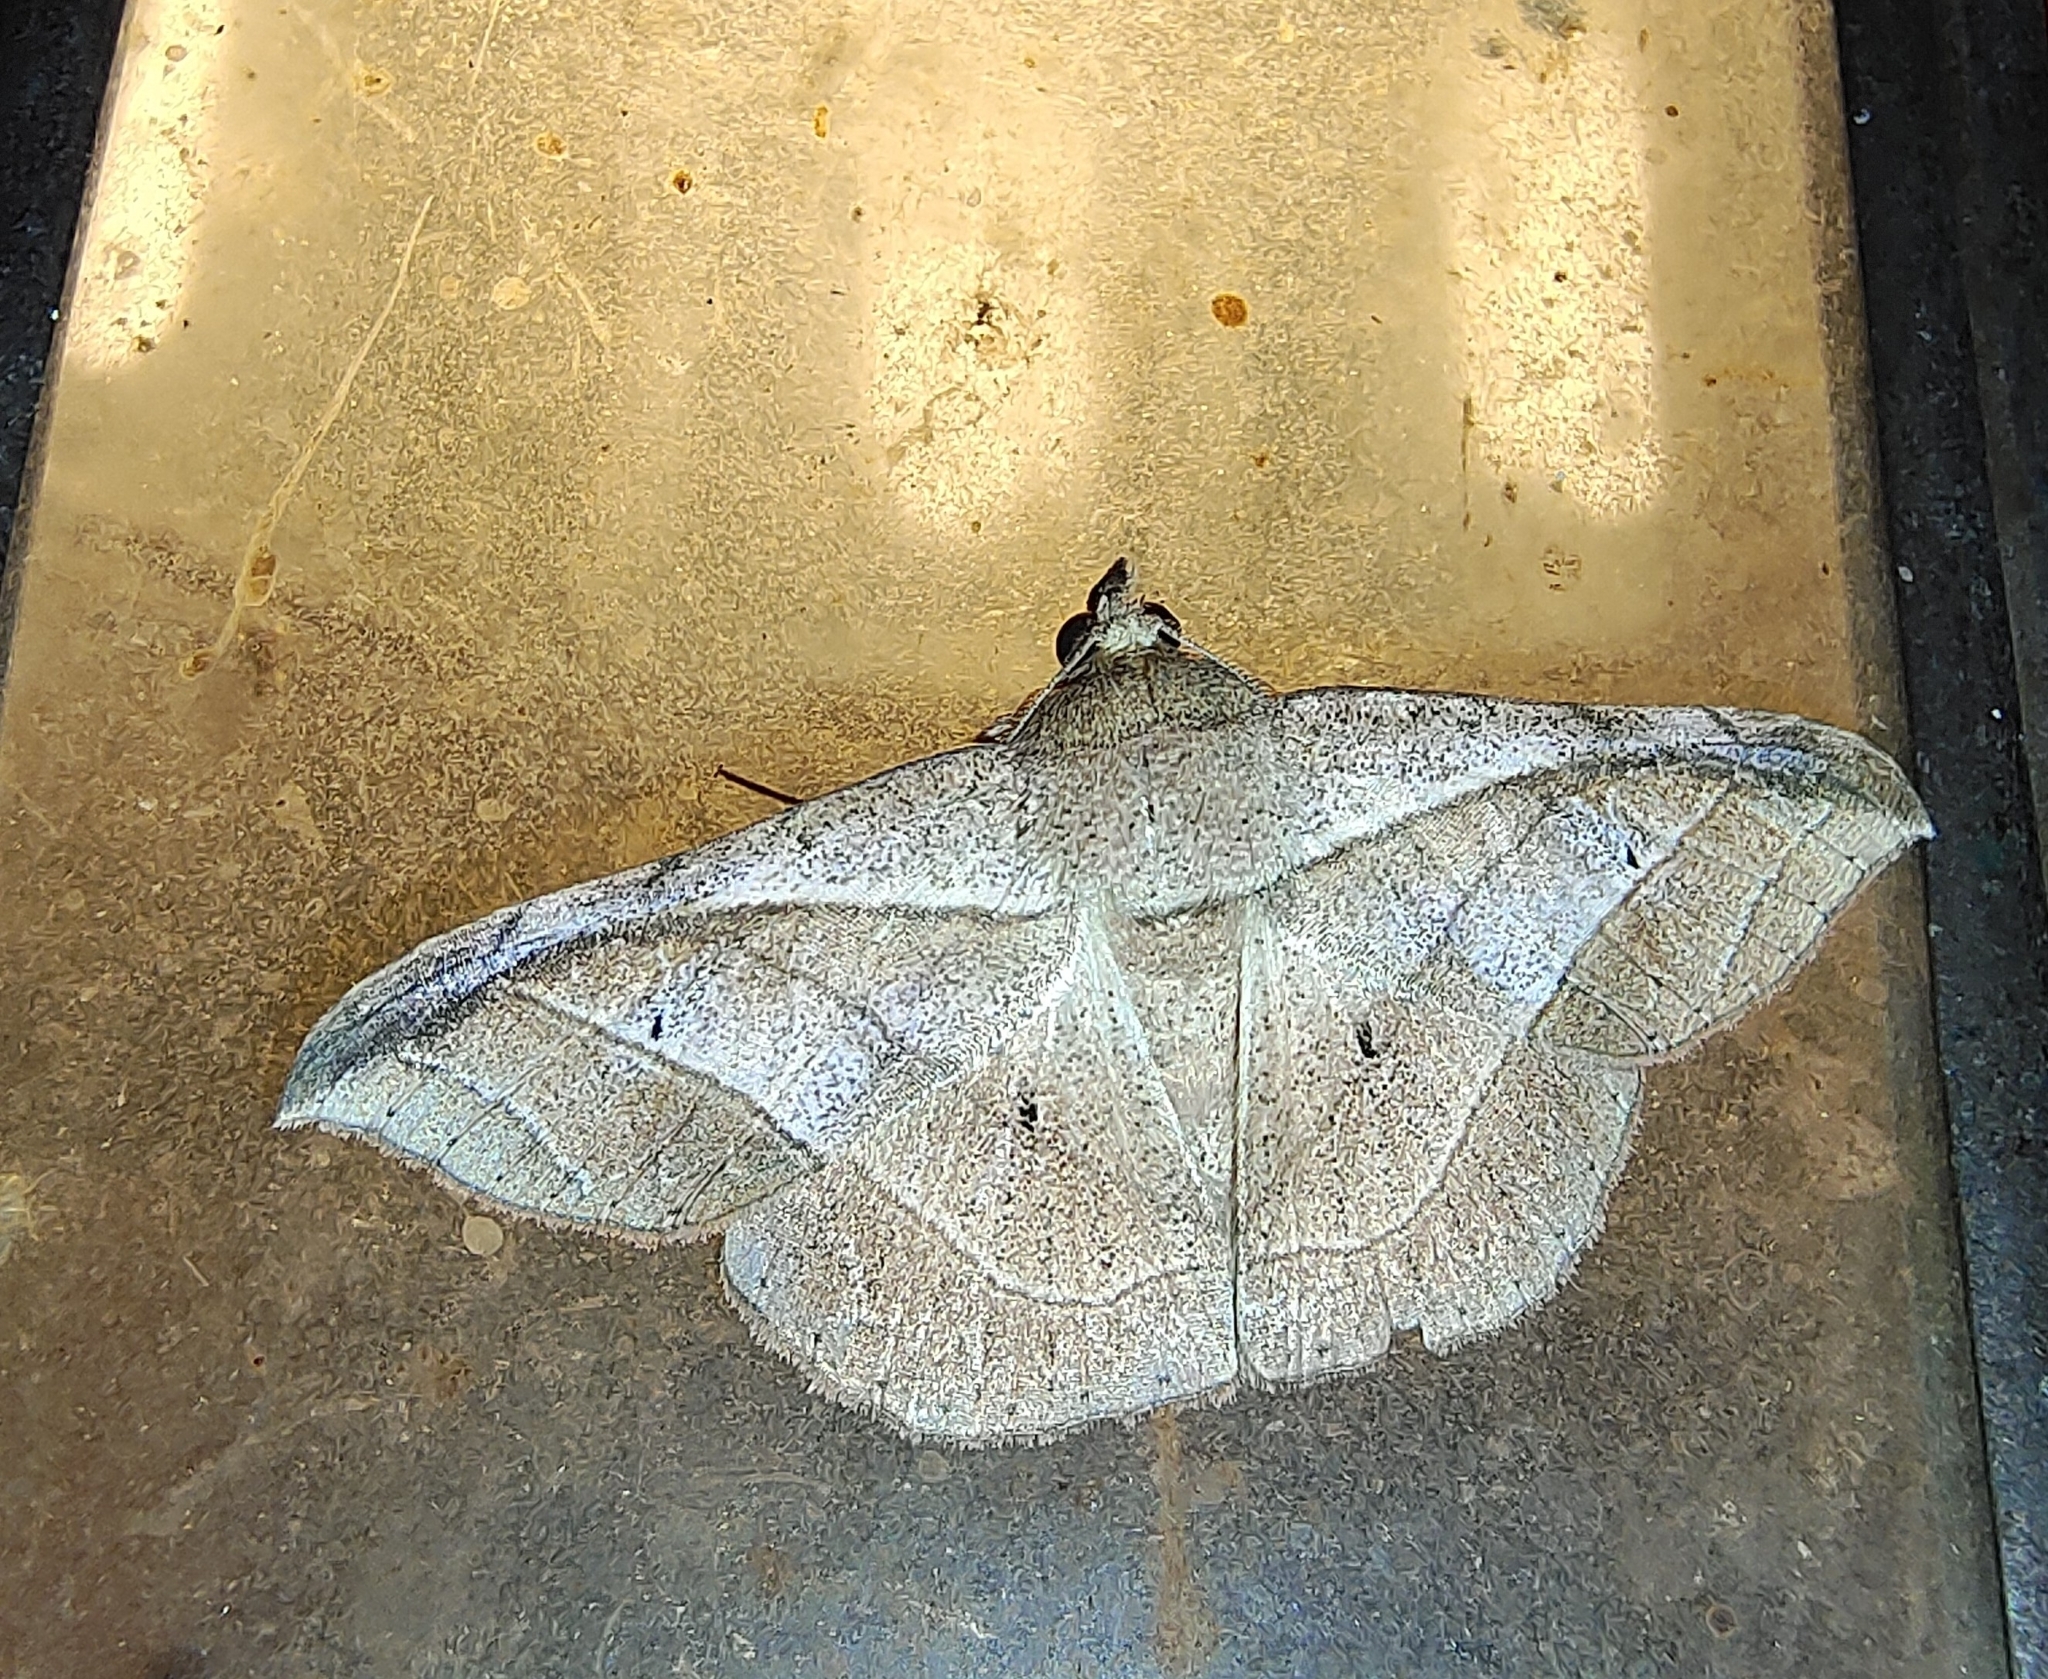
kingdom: Animalia
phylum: Arthropoda
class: Insecta
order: Lepidoptera
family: Erebidae
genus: Tiruvaca
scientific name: Tiruvaca subcostalis
